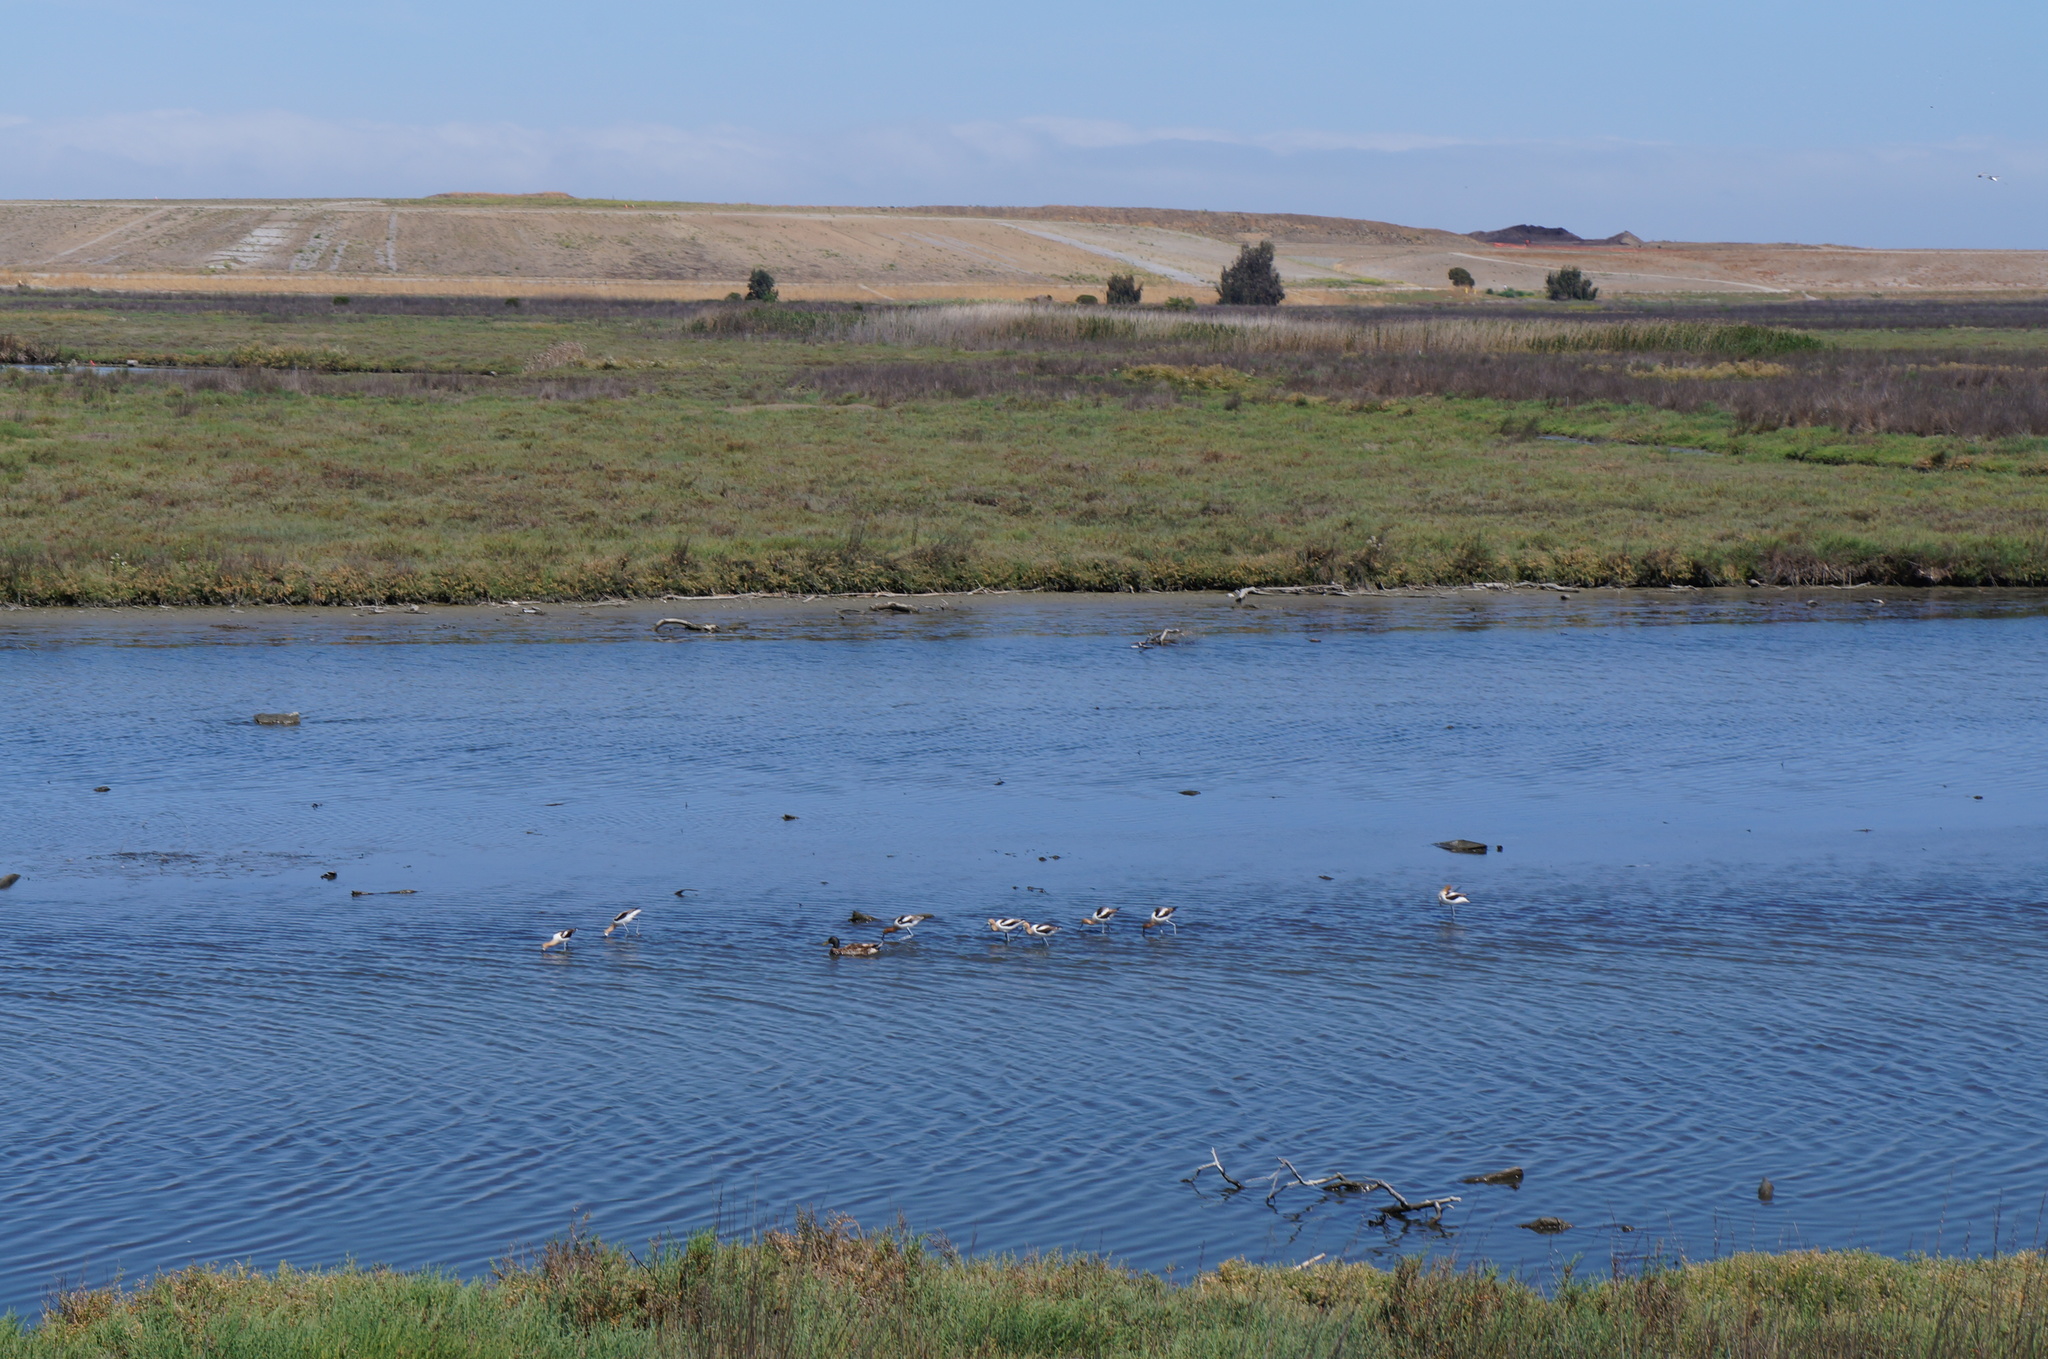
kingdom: Animalia
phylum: Chordata
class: Aves
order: Charadriiformes
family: Recurvirostridae
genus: Recurvirostra
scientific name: Recurvirostra americana
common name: American avocet
